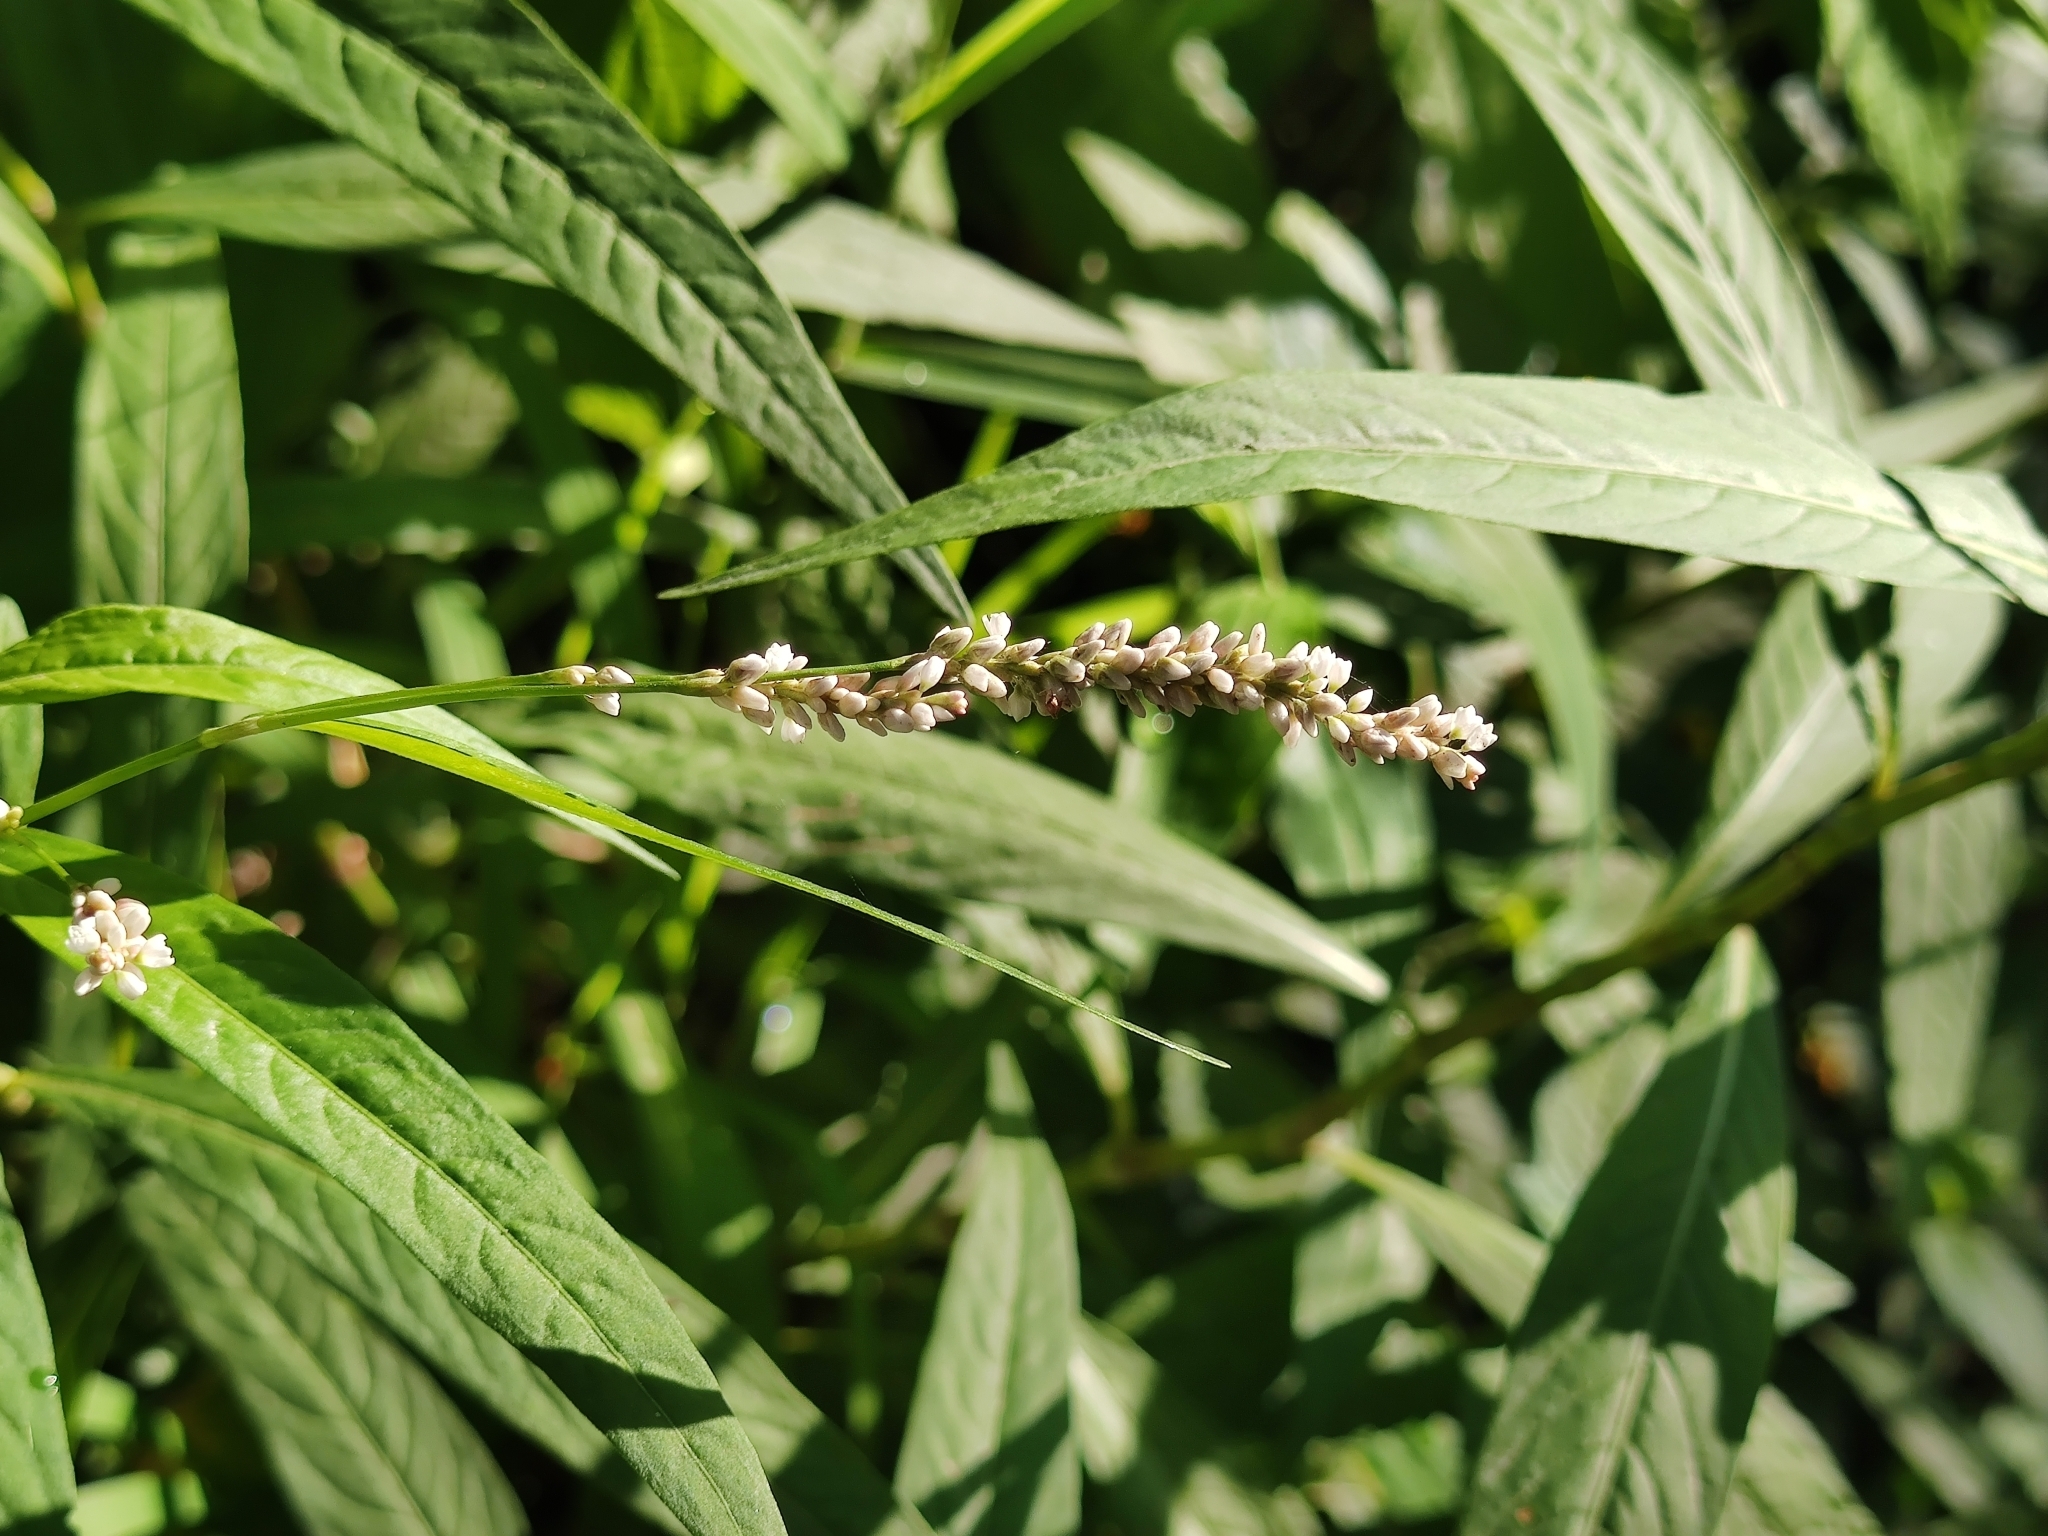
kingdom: Plantae
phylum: Tracheophyta
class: Magnoliopsida
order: Caryophyllales
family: Polygonaceae
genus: Persicaria
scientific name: Persicaria hydropiperoides
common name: Swamp smartweed
